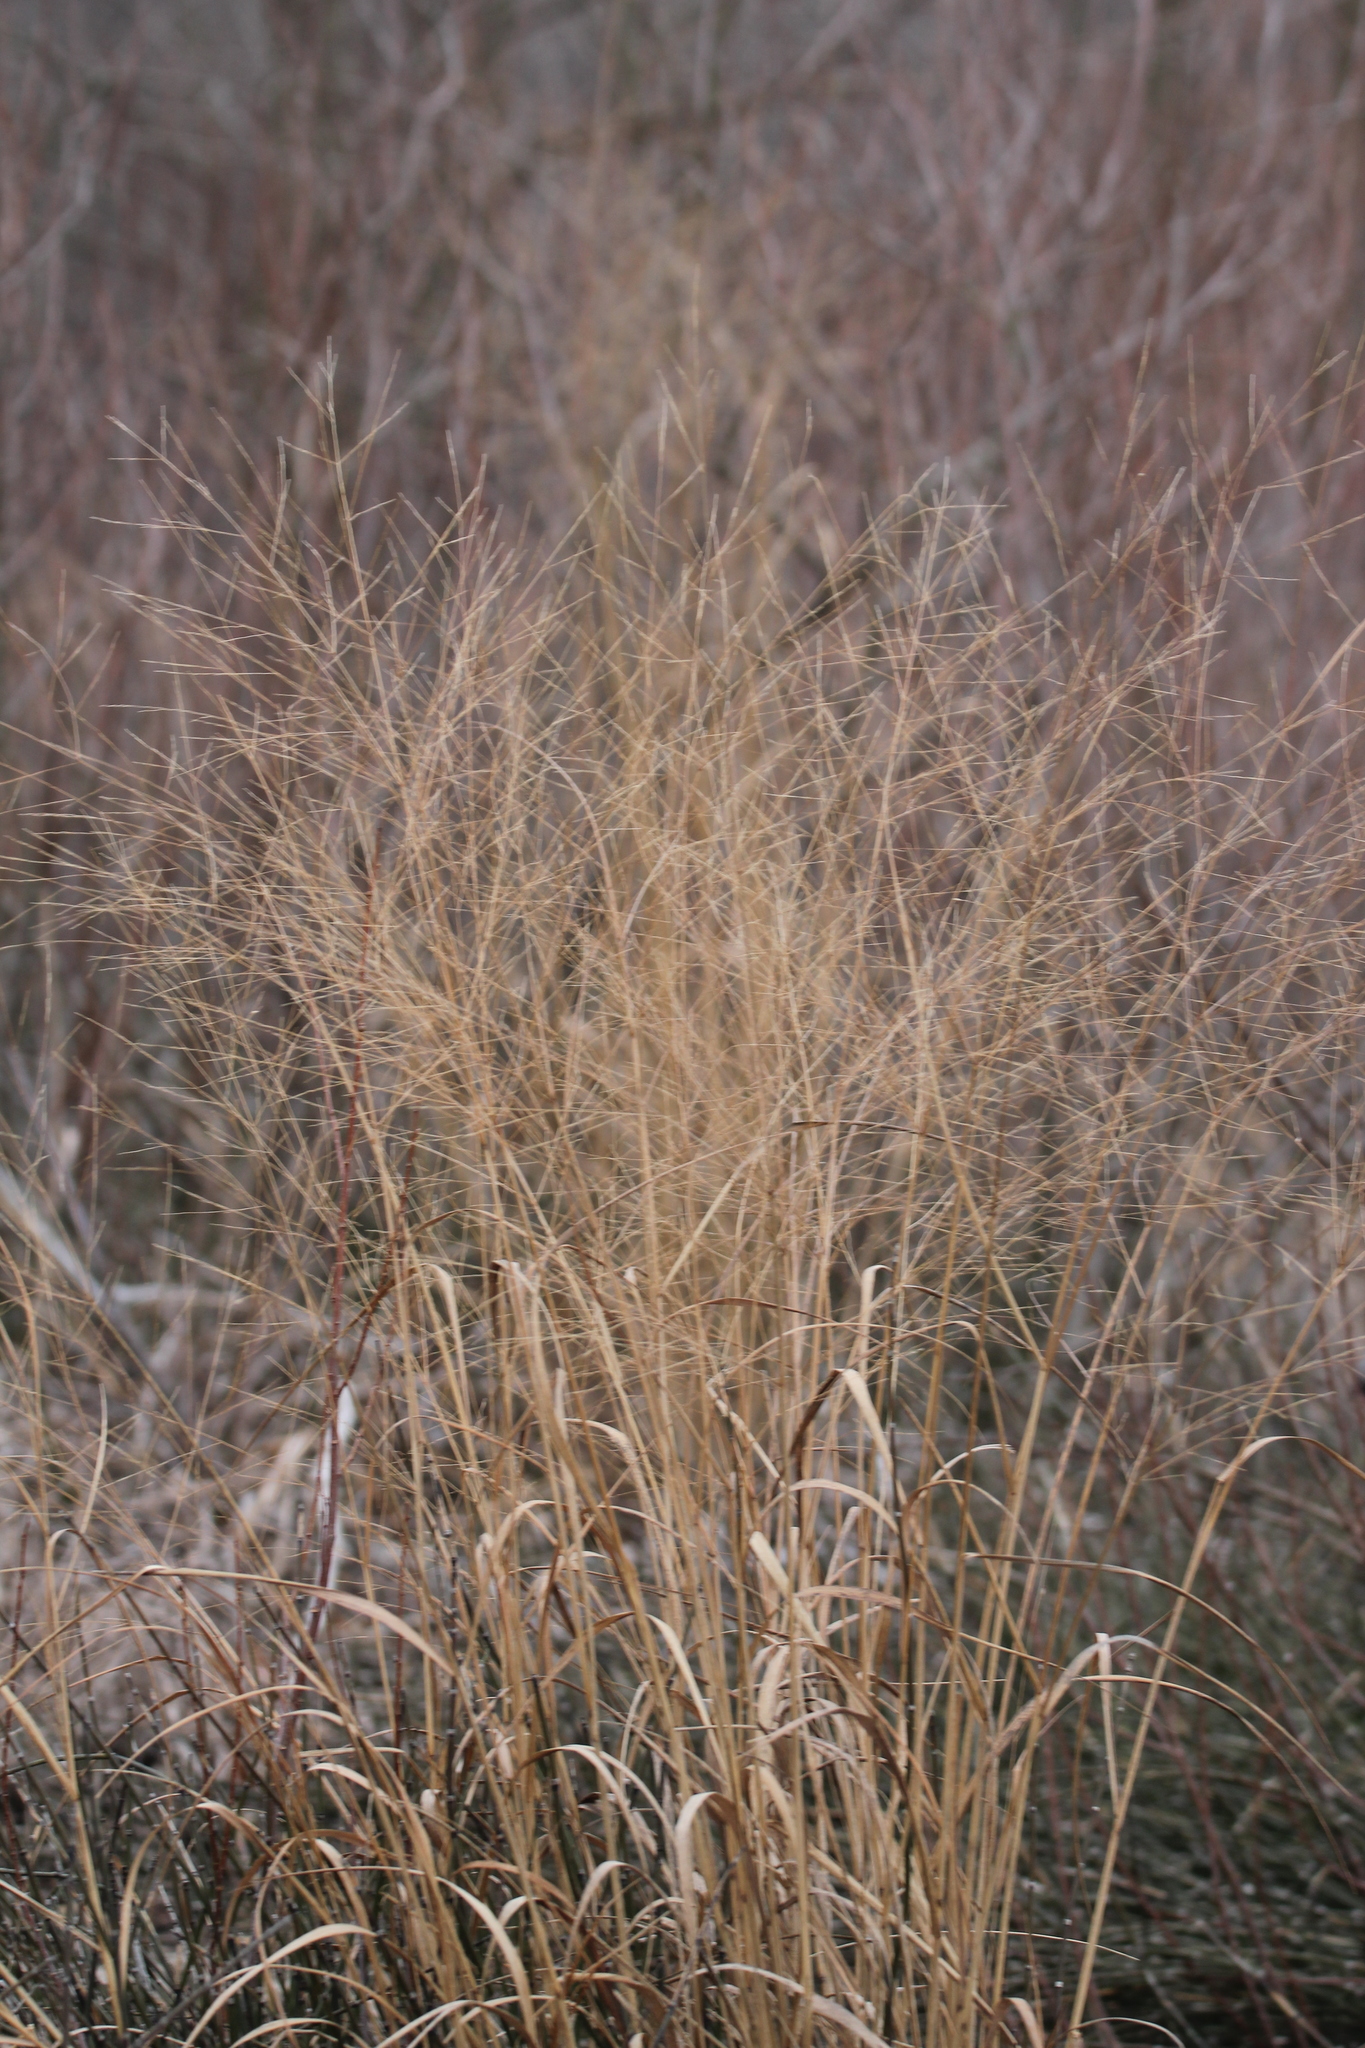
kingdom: Plantae
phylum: Tracheophyta
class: Liliopsida
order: Poales
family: Poaceae
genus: Panicum
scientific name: Panicum virgatum
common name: Switchgrass
